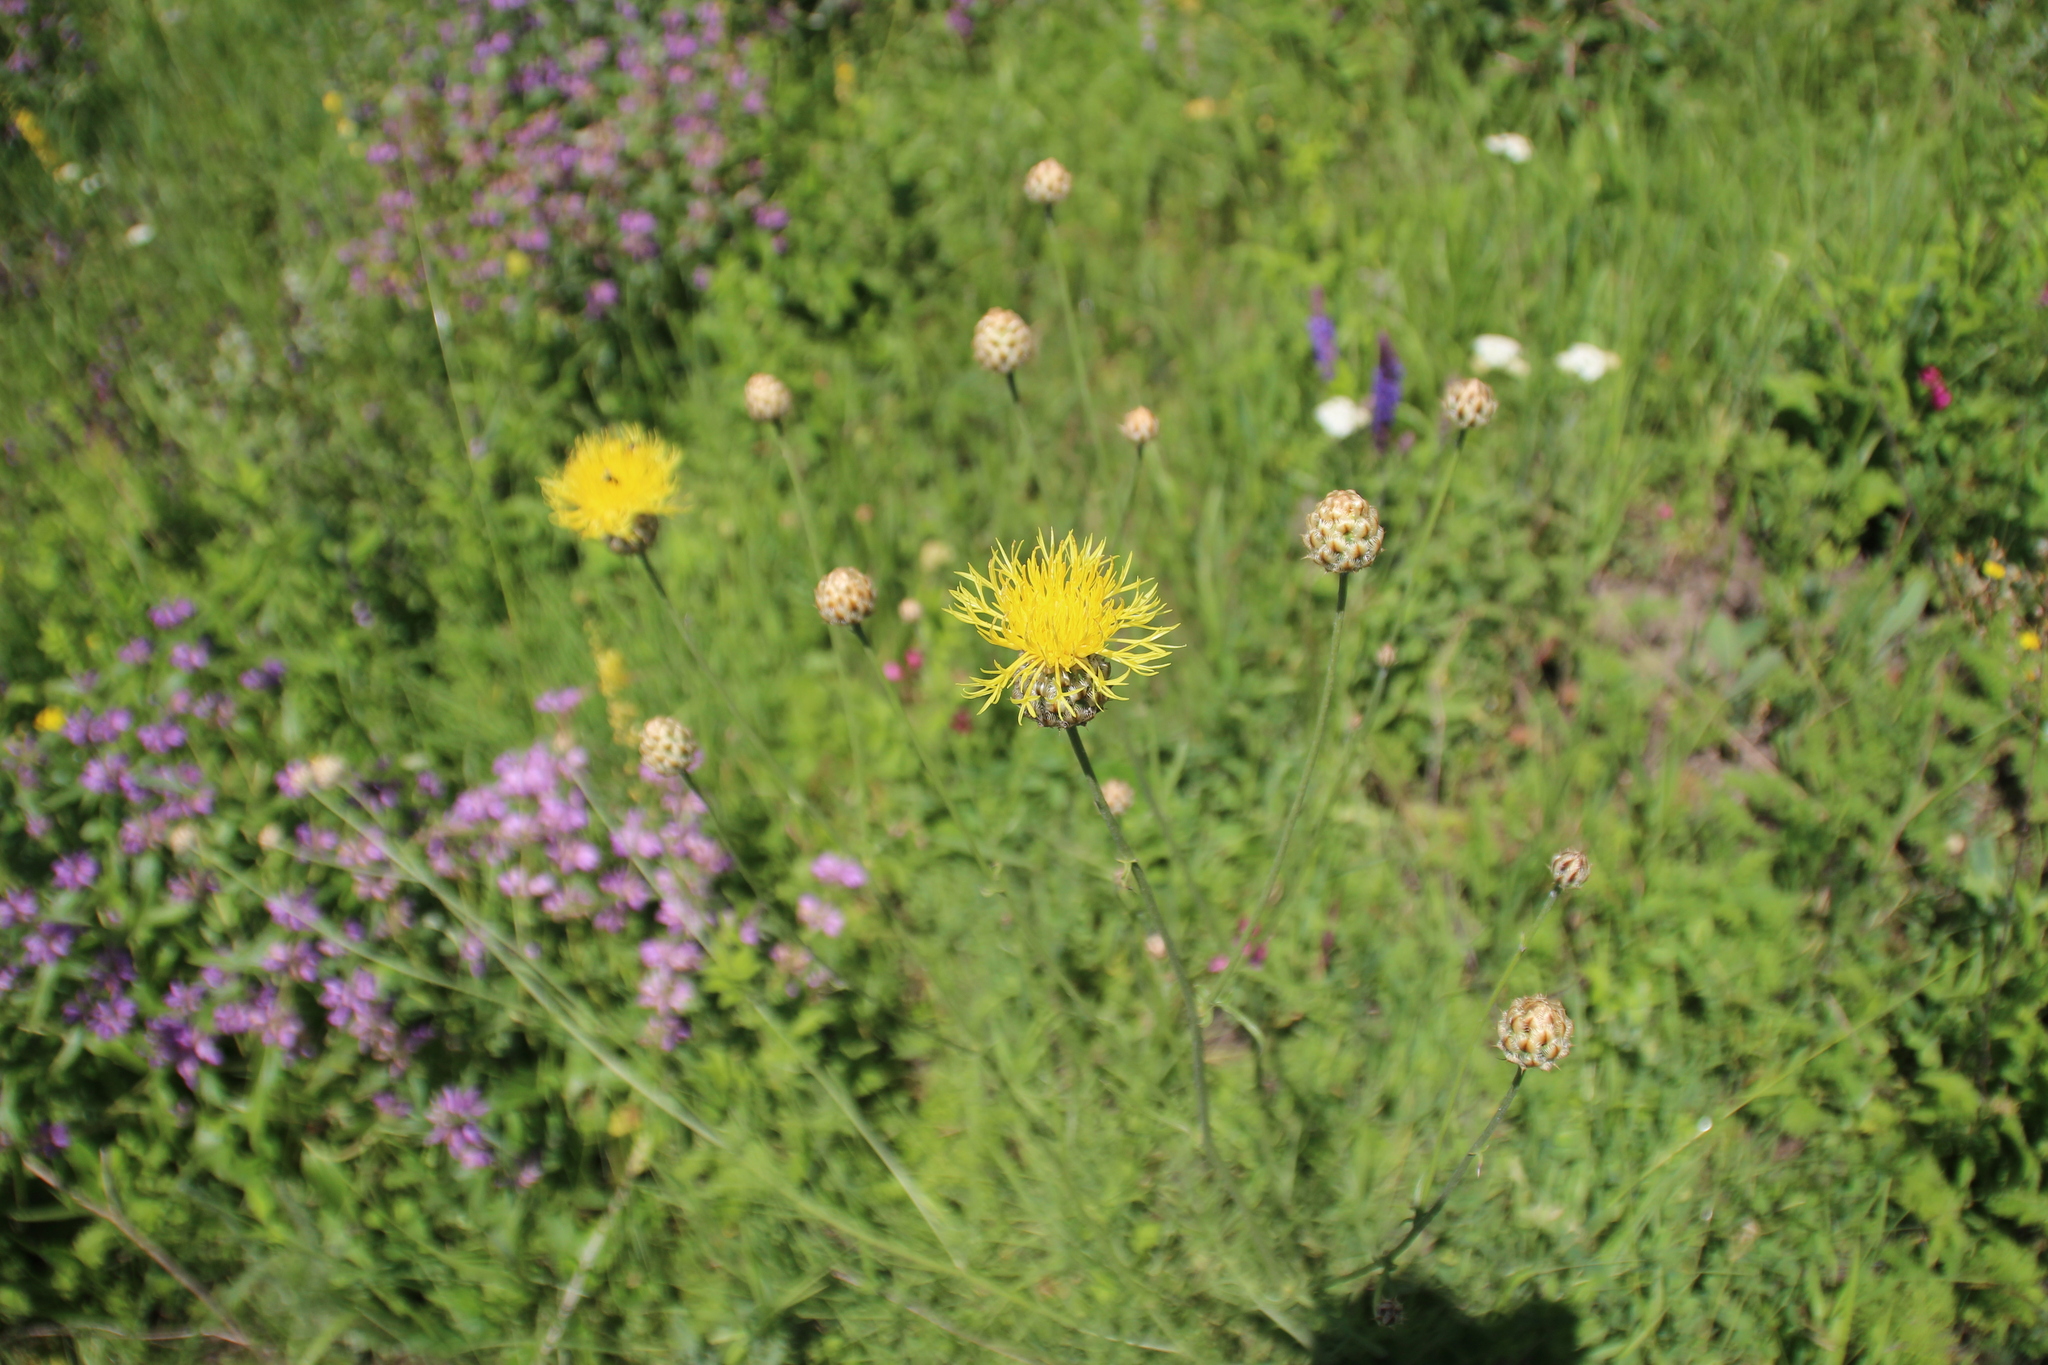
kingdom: Plantae
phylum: Tracheophyta
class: Magnoliopsida
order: Asterales
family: Asteraceae
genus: Centaurea
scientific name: Centaurea orientalis
